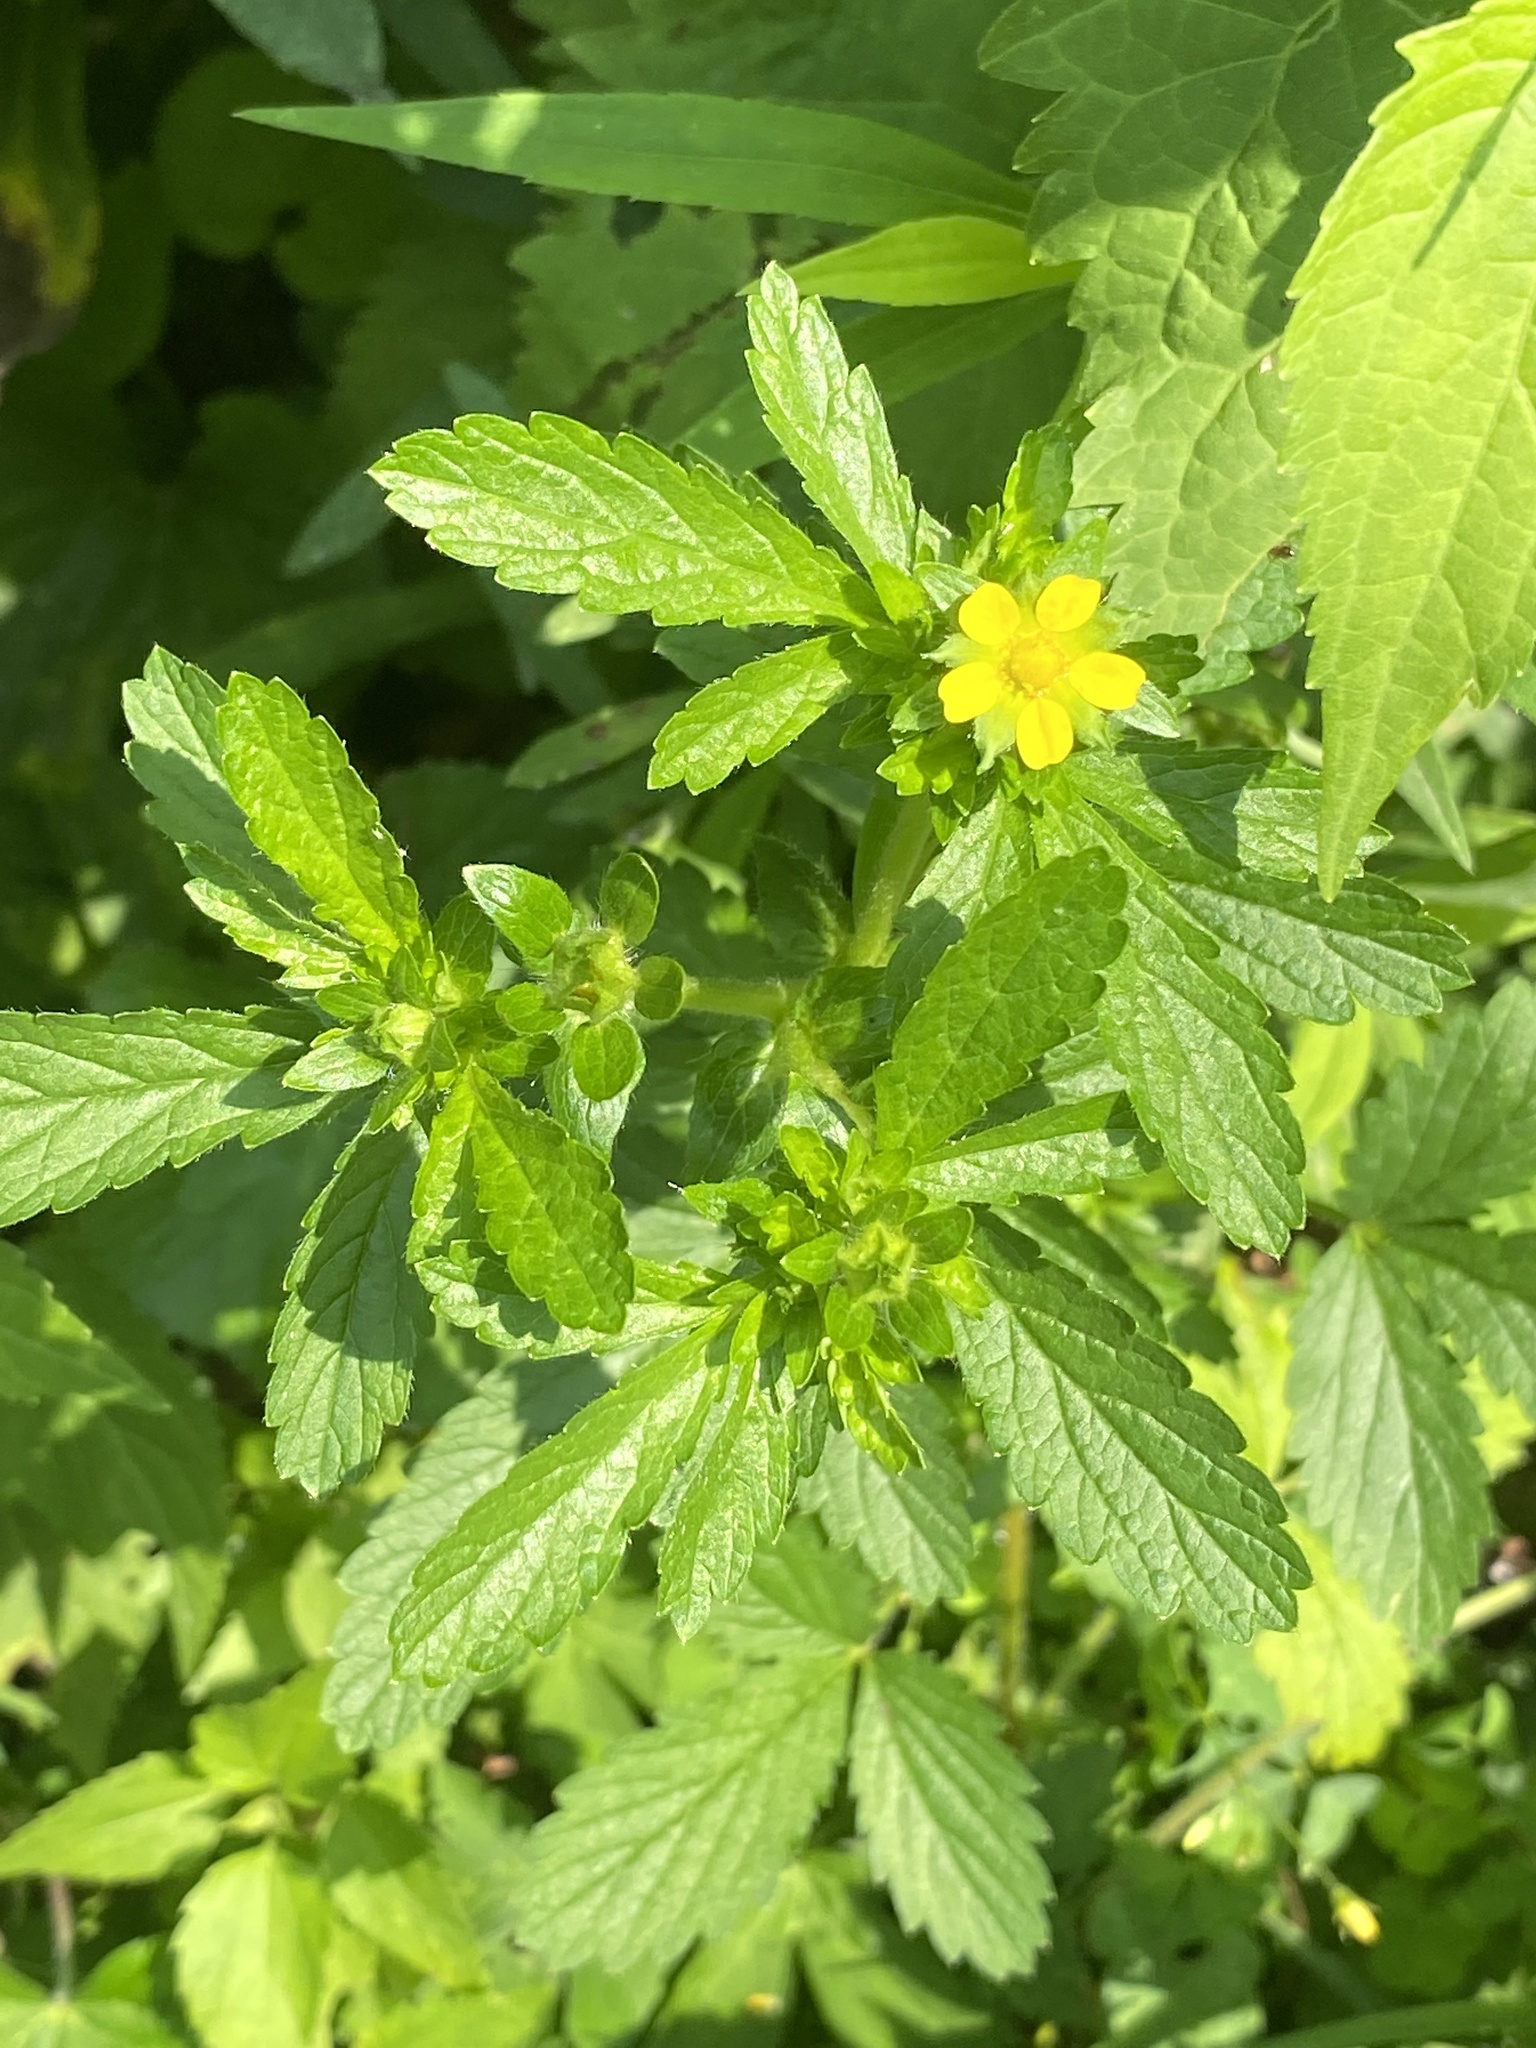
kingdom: Plantae
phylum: Tracheophyta
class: Magnoliopsida
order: Rosales
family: Rosaceae
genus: Potentilla
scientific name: Potentilla norvegica
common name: Ternate-leaved cinquefoil
